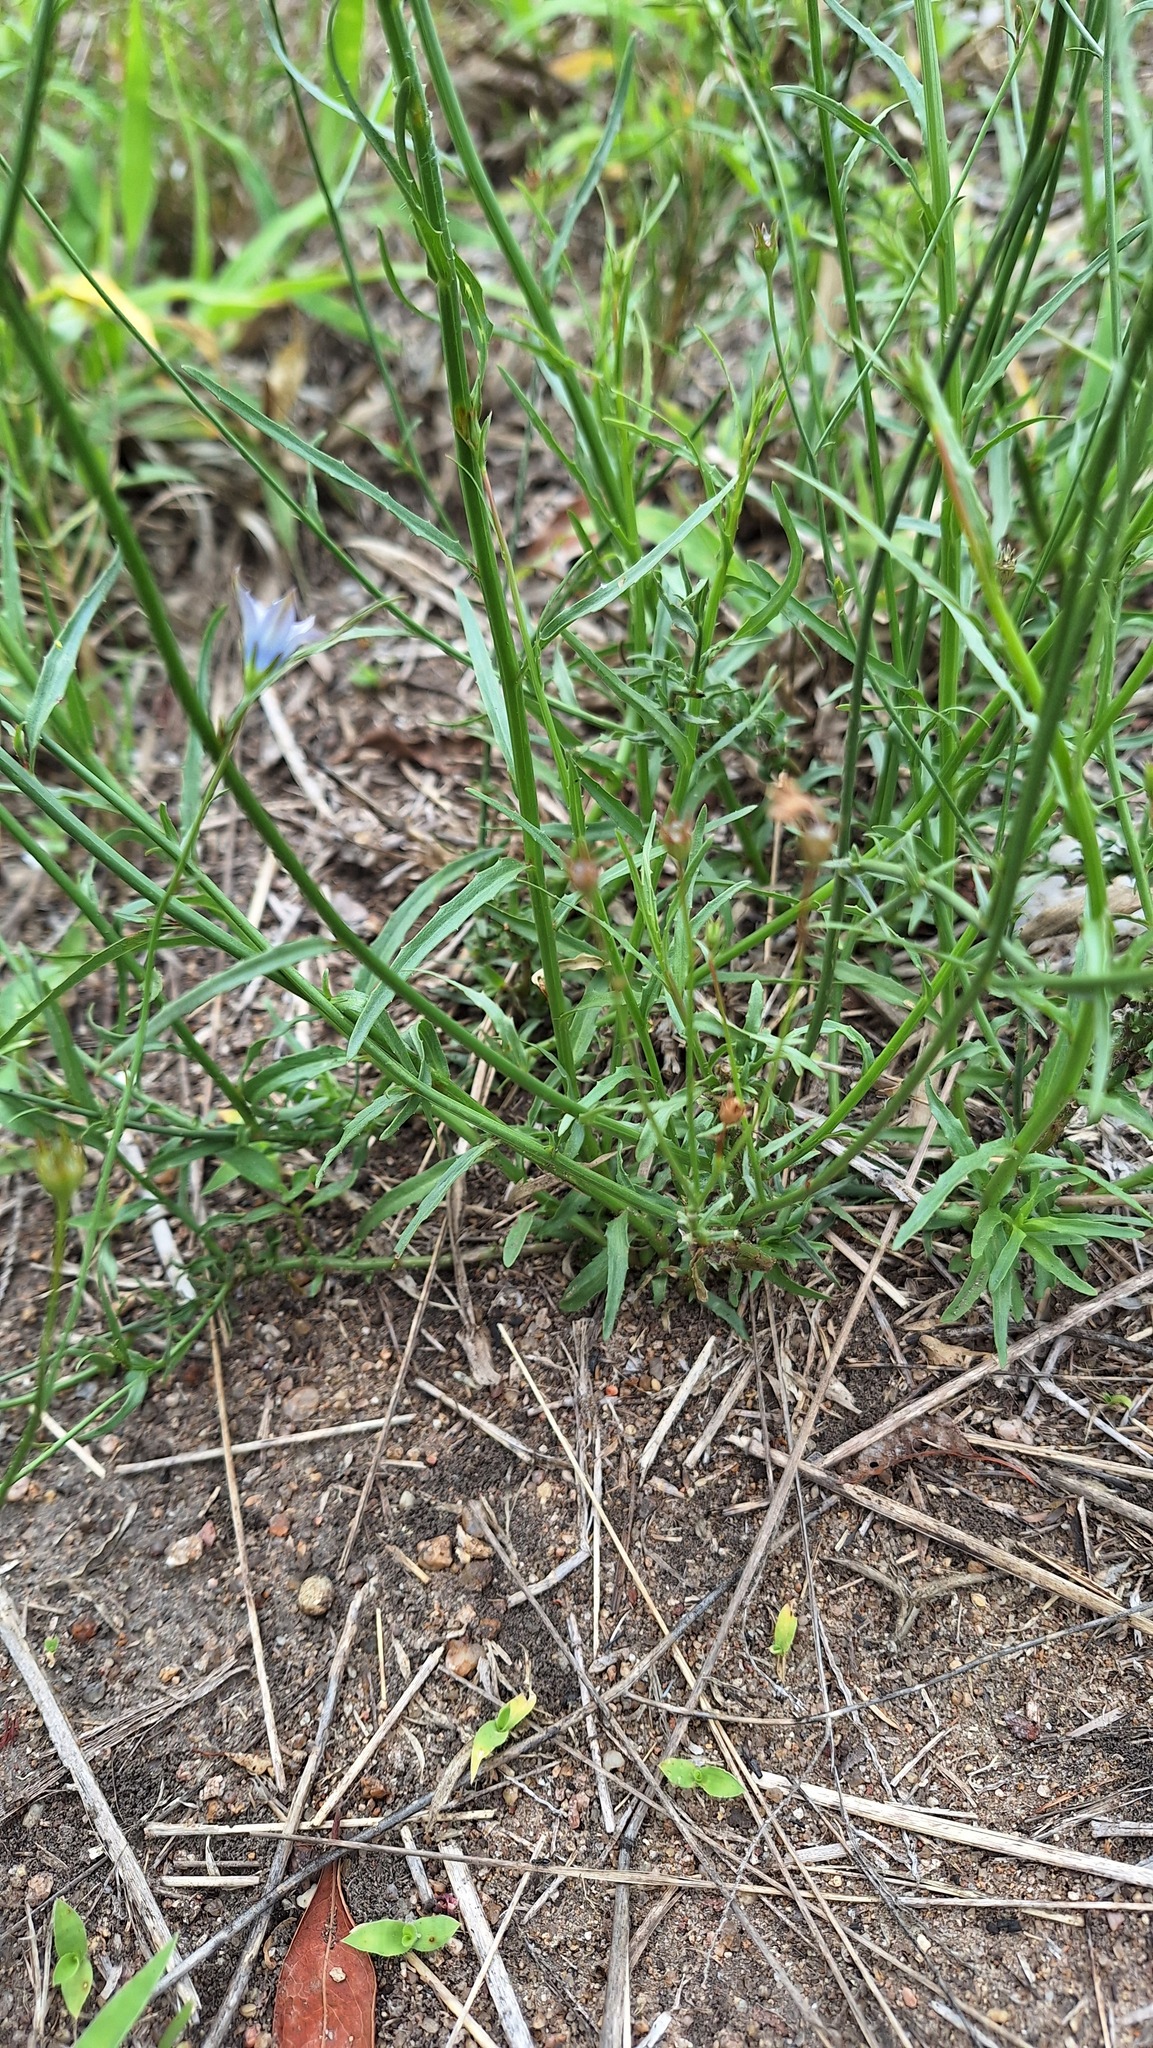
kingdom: Plantae
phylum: Tracheophyta
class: Magnoliopsida
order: Asterales
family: Campanulaceae
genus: Wahlenbergia
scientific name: Wahlenbergia undulata
